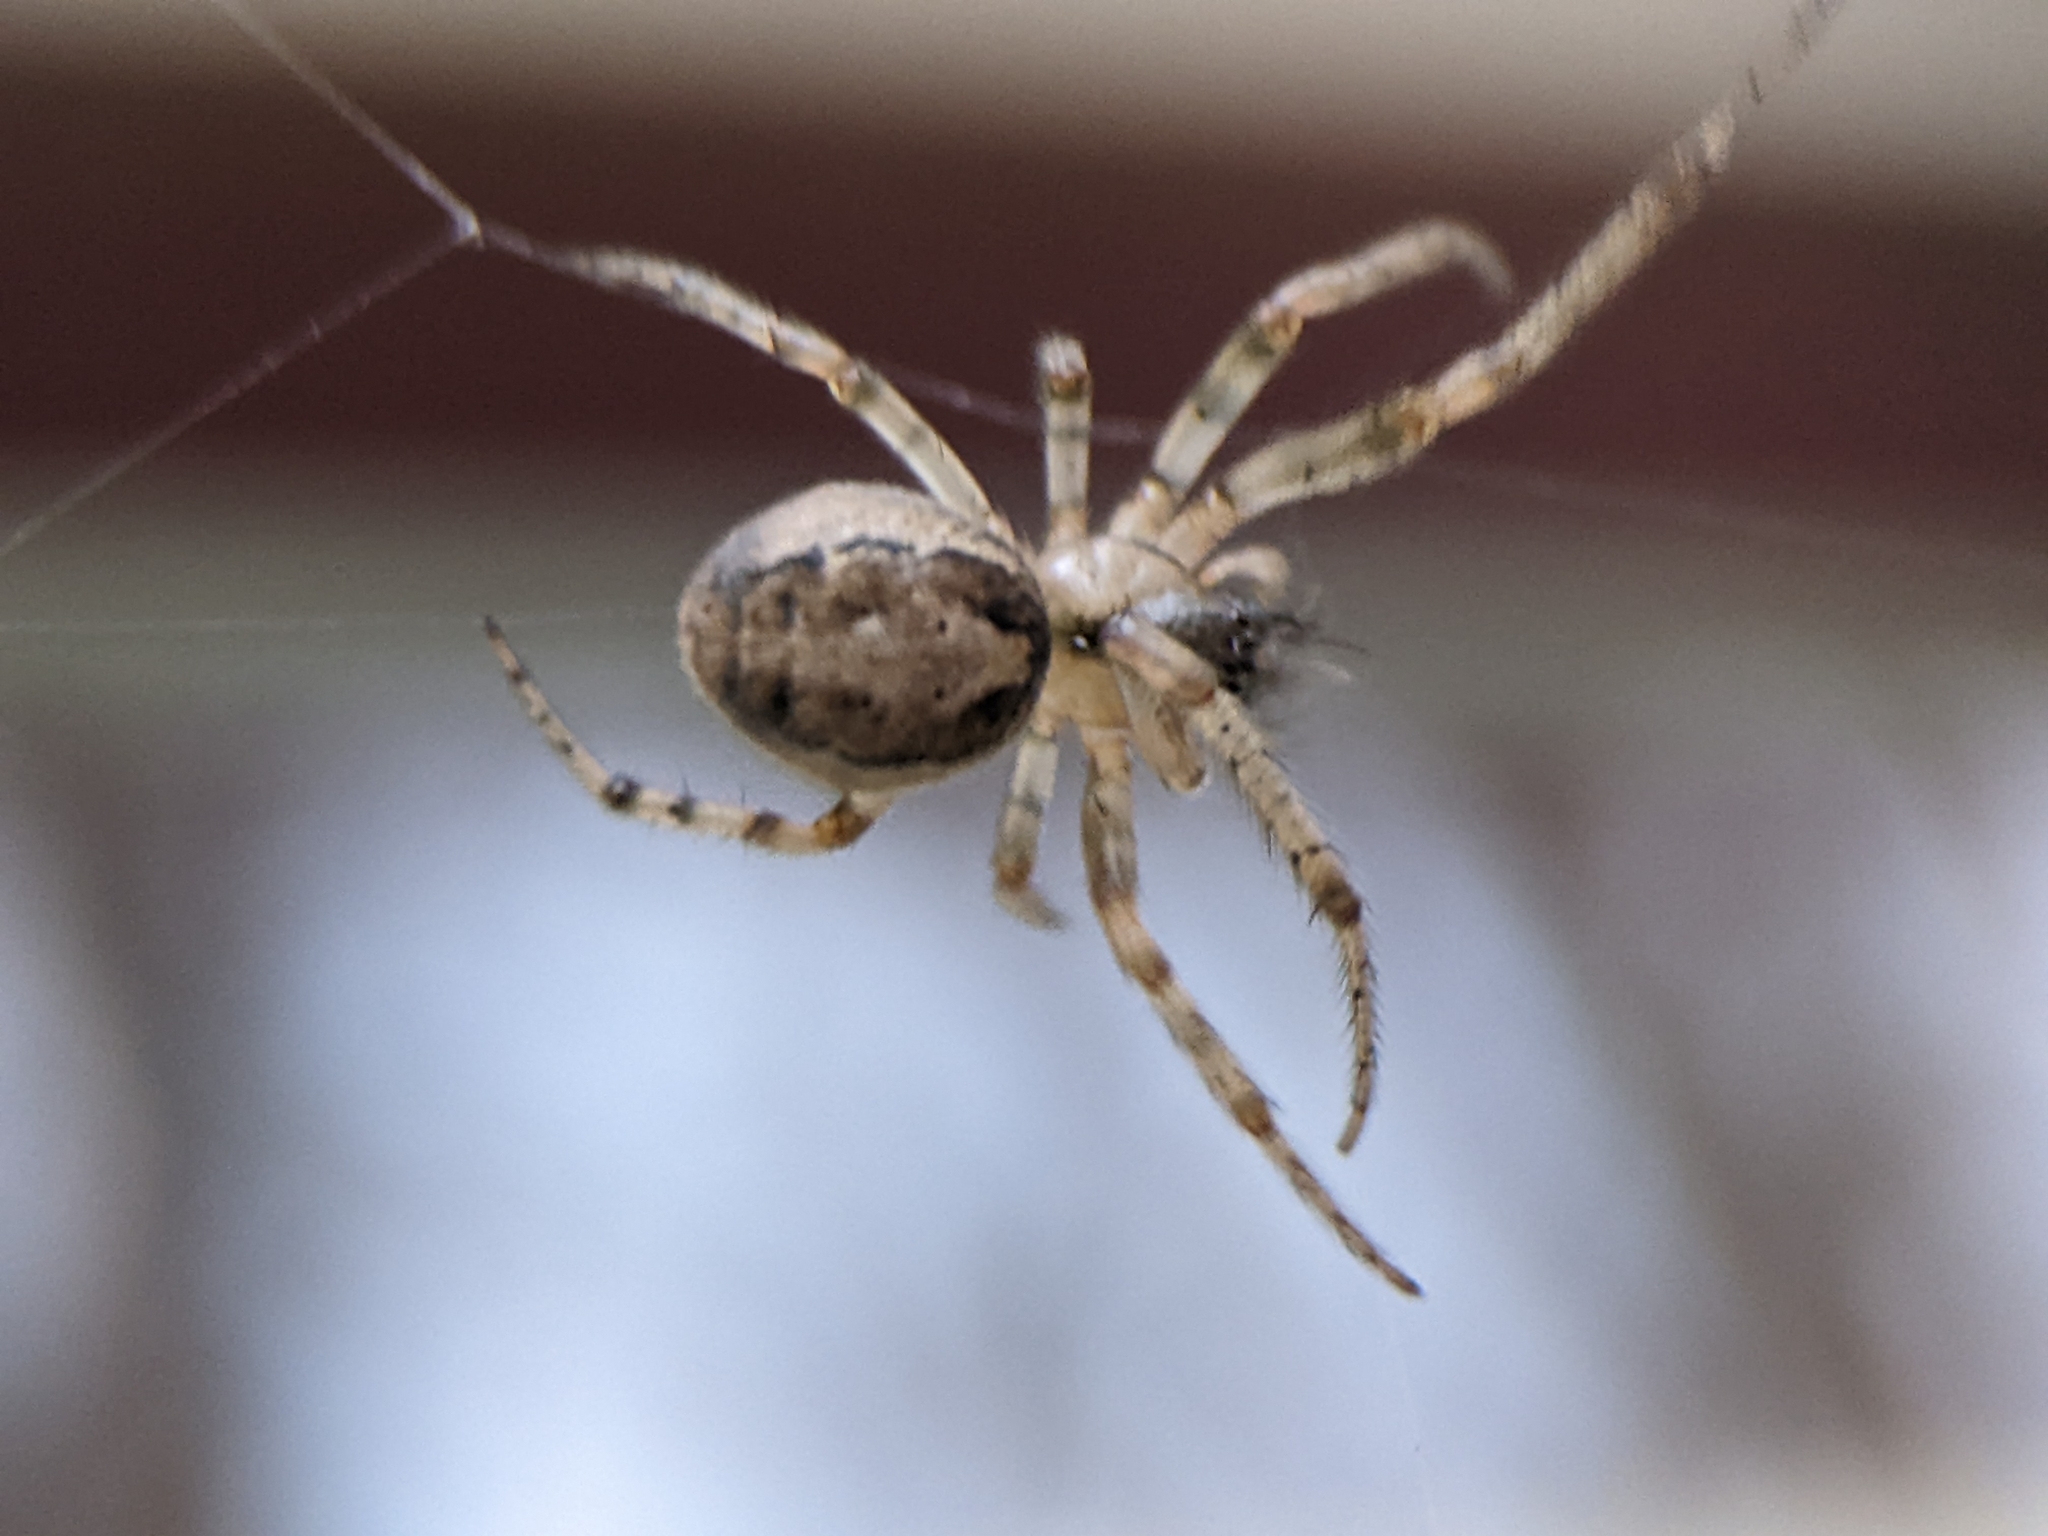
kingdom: Animalia
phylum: Arthropoda
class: Arachnida
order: Araneae
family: Araneidae
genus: Zygiella
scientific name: Zygiella x-notata
